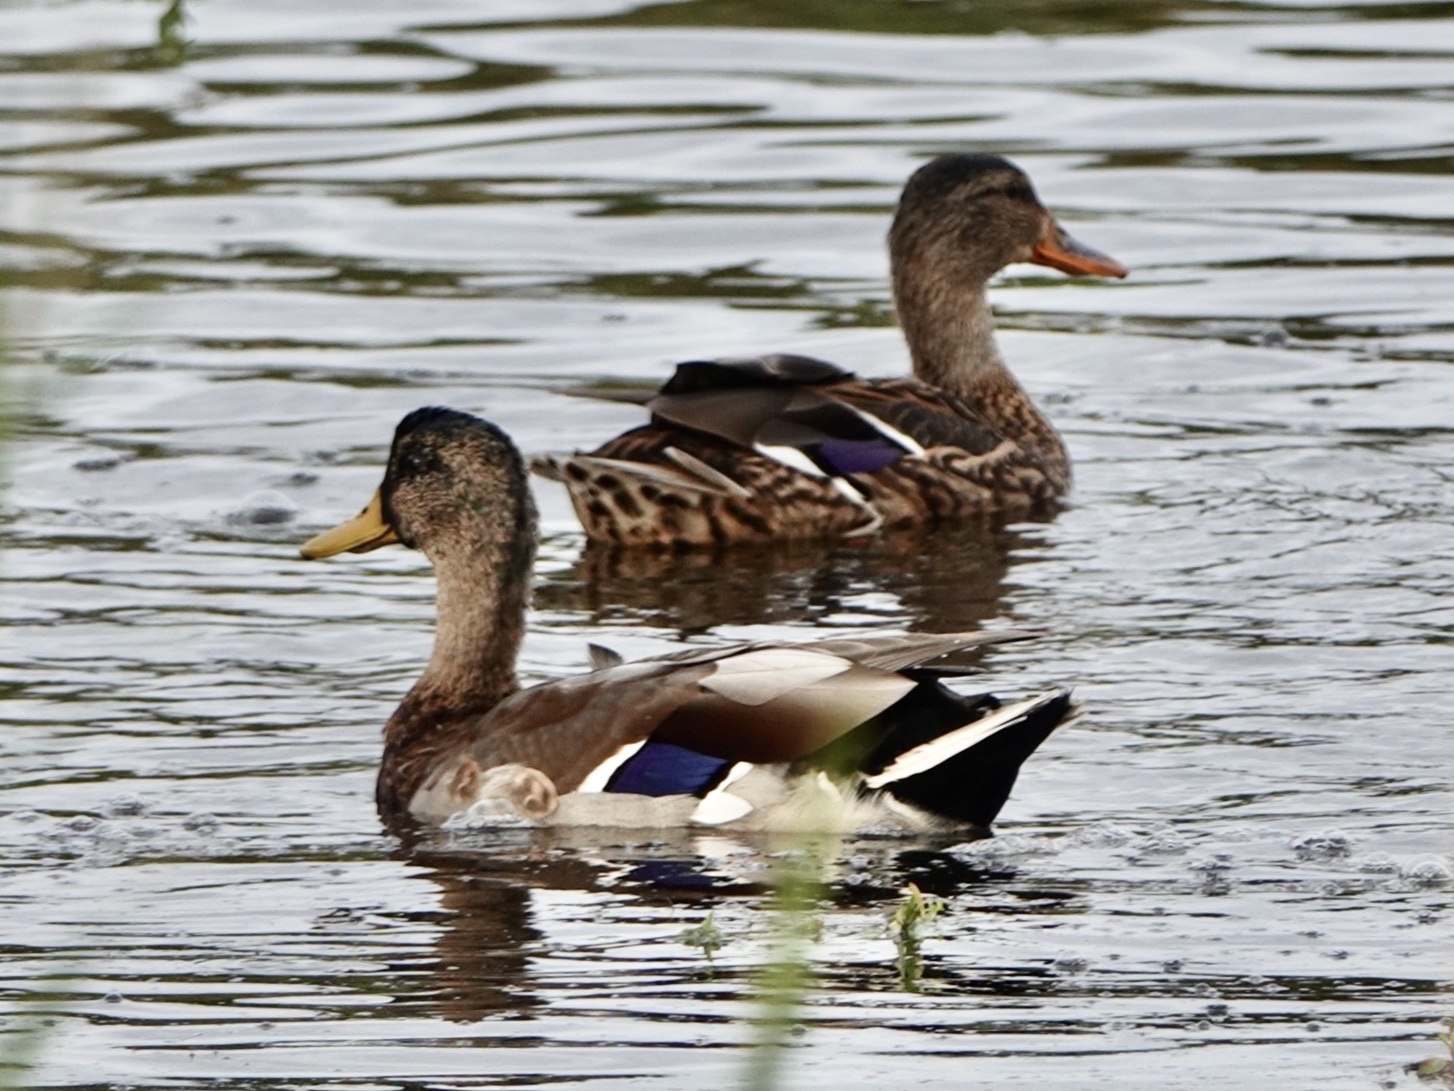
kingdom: Animalia
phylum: Chordata
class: Aves
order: Anseriformes
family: Anatidae
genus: Anas
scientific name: Anas platyrhynchos
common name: Mallard
